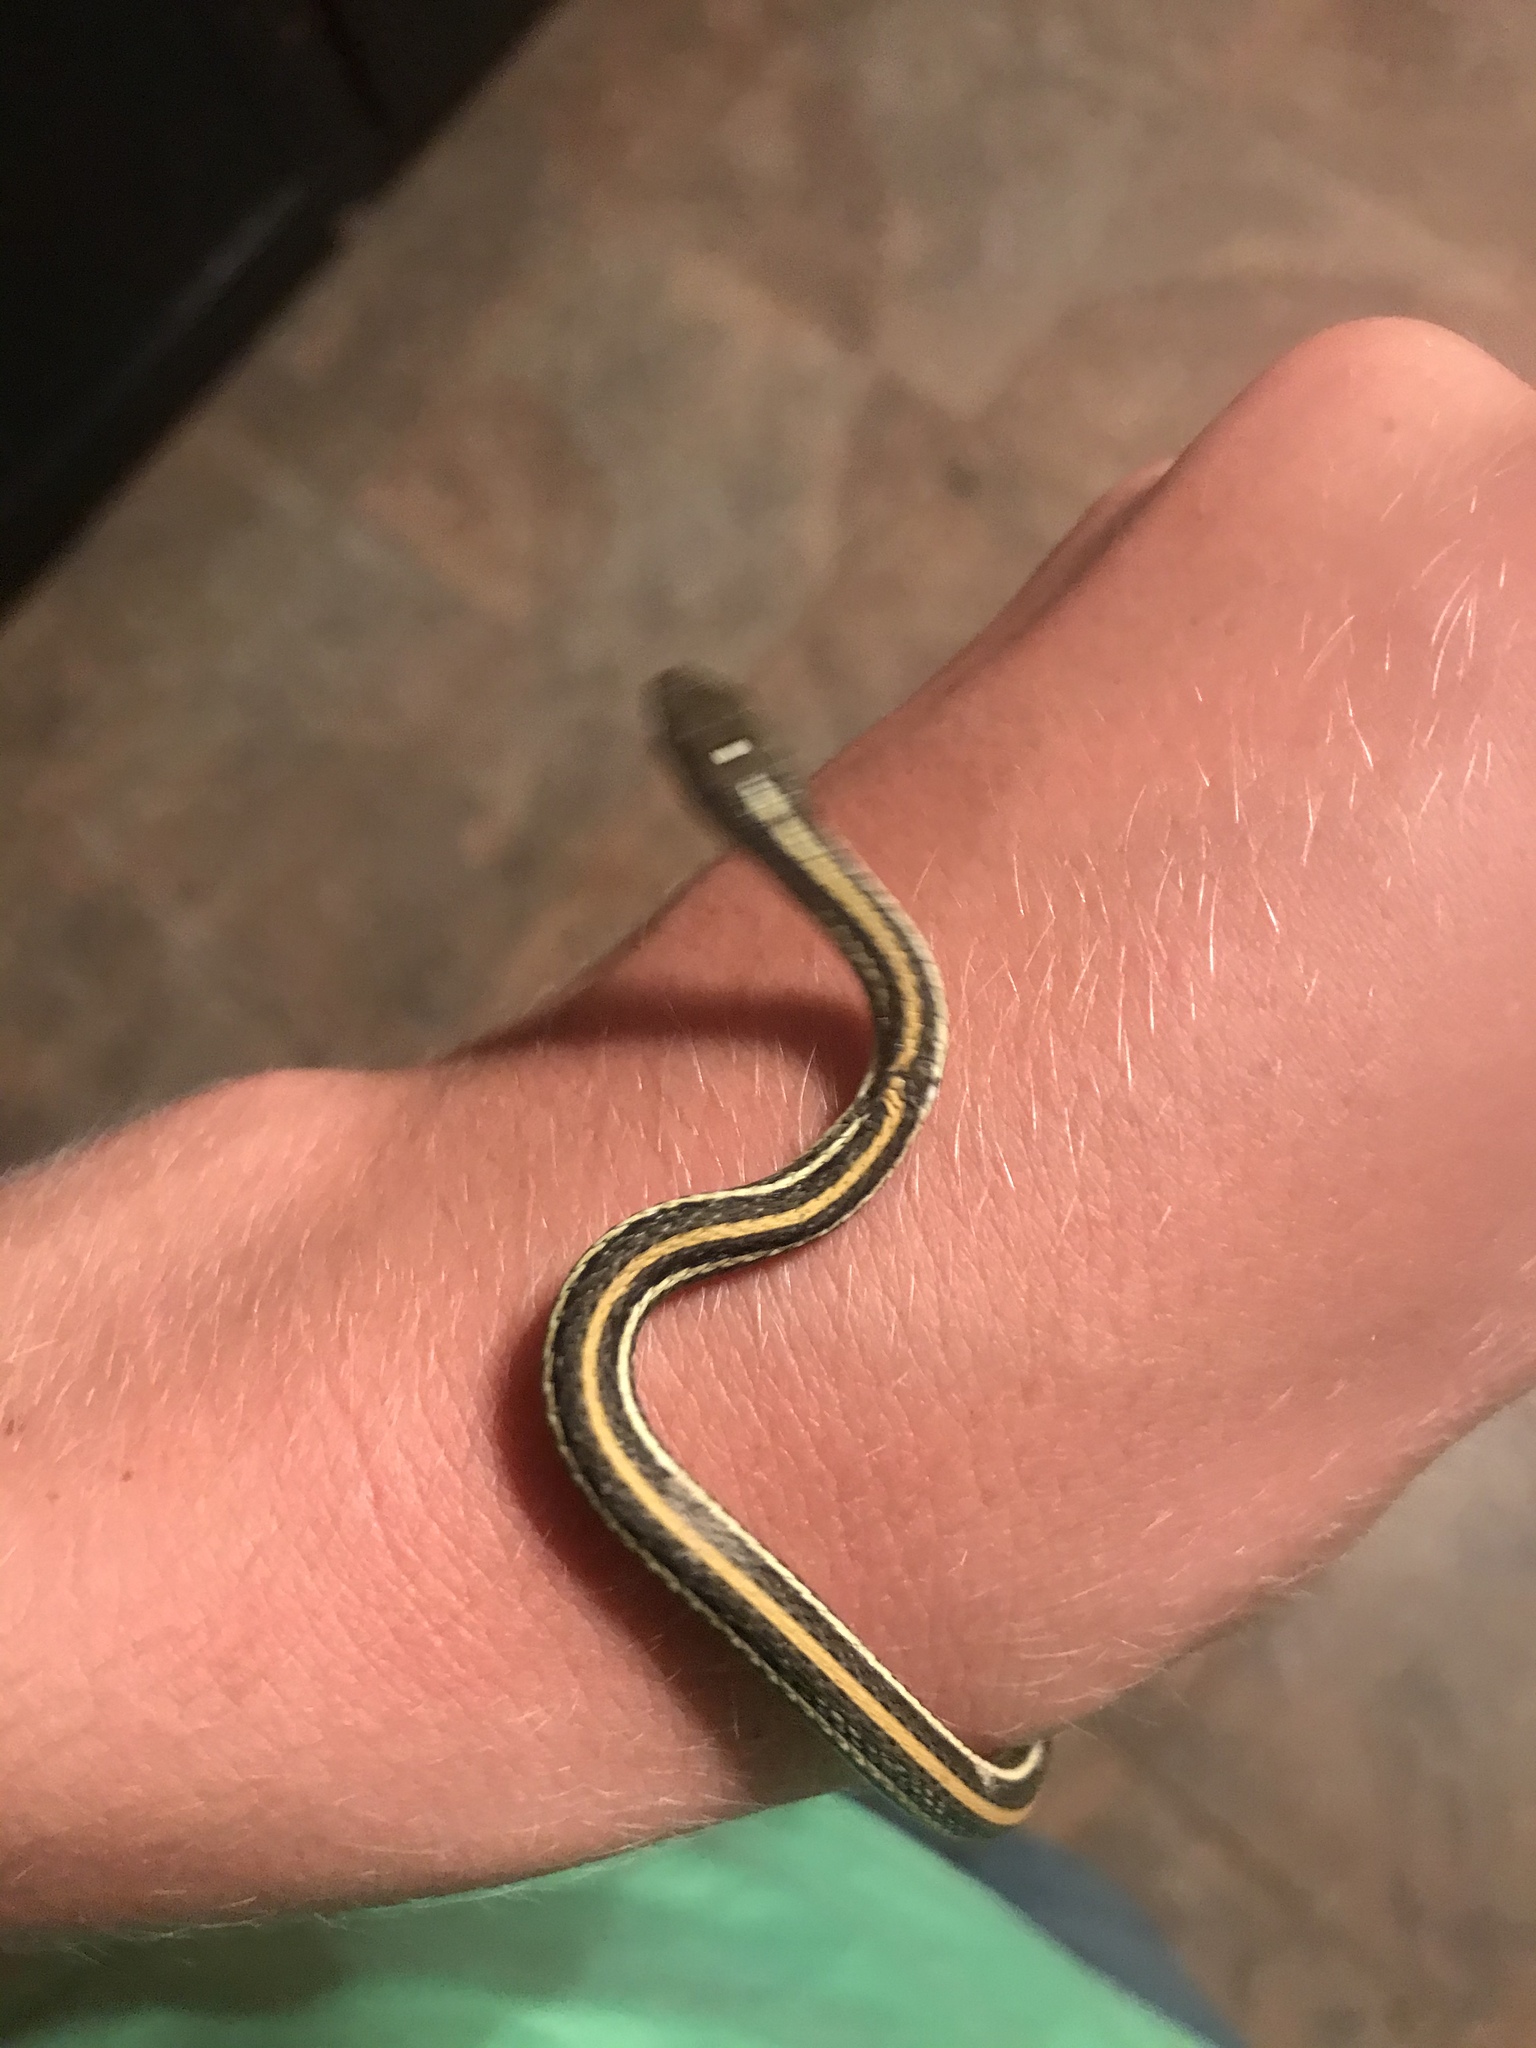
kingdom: Animalia
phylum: Chordata
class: Squamata
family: Colubridae
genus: Thamnophis
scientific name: Thamnophis proximus
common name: Western ribbon snake
